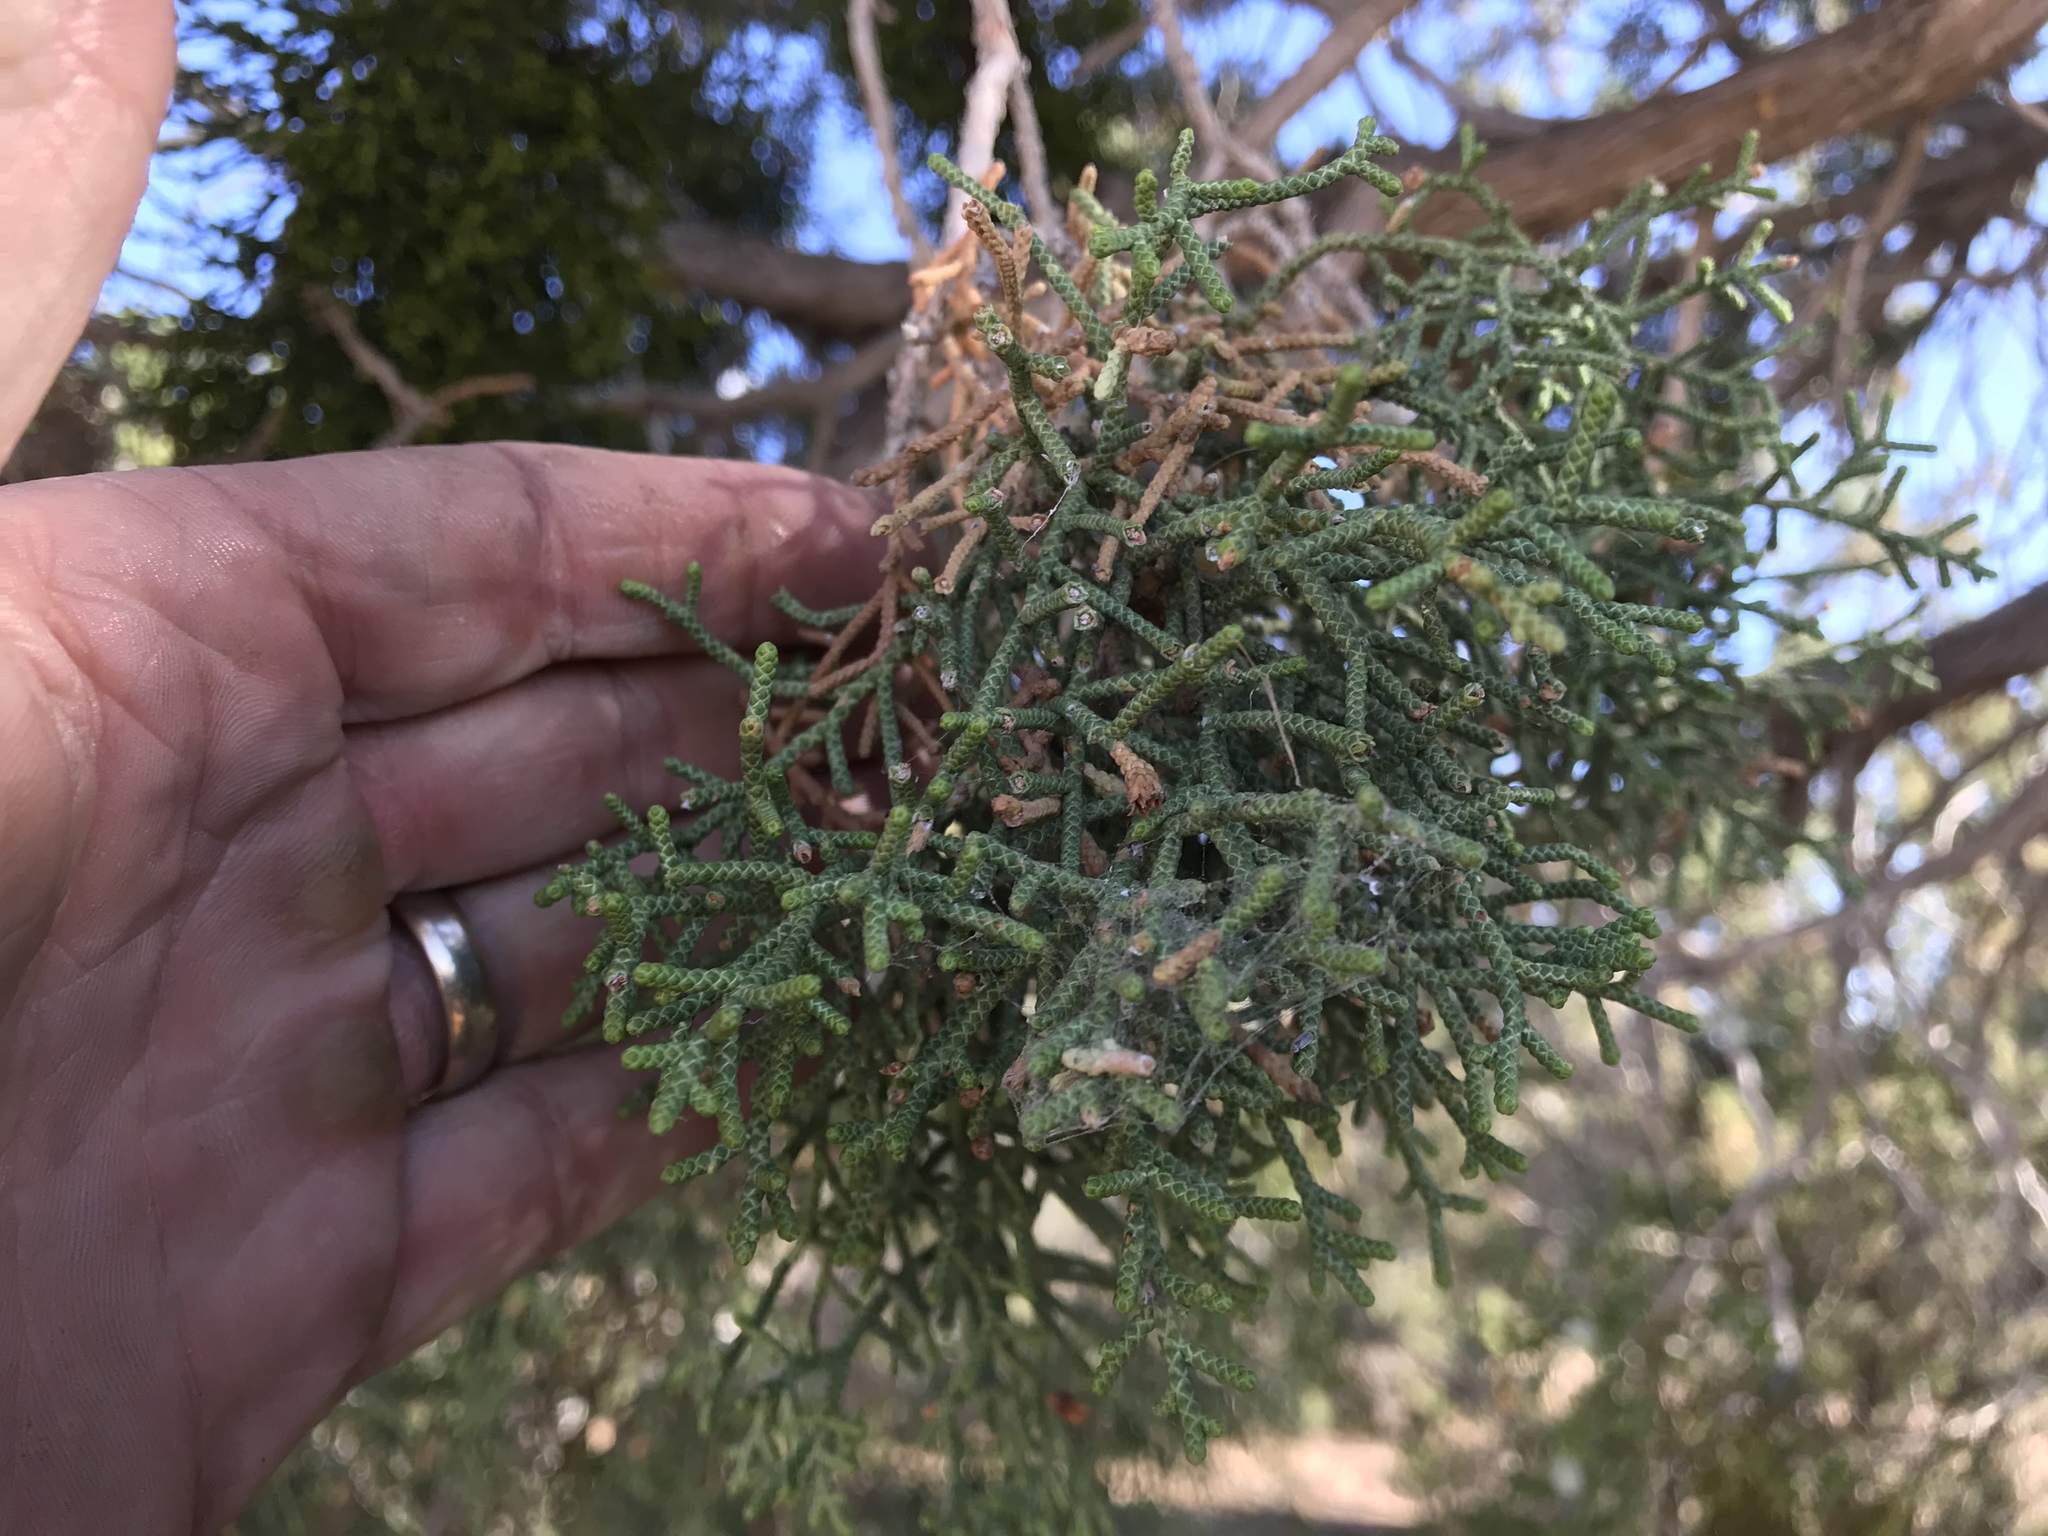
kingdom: Plantae
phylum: Tracheophyta
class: Pinopsida
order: Pinales
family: Cupressaceae
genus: Juniperus
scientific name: Juniperus californica
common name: California juniper
